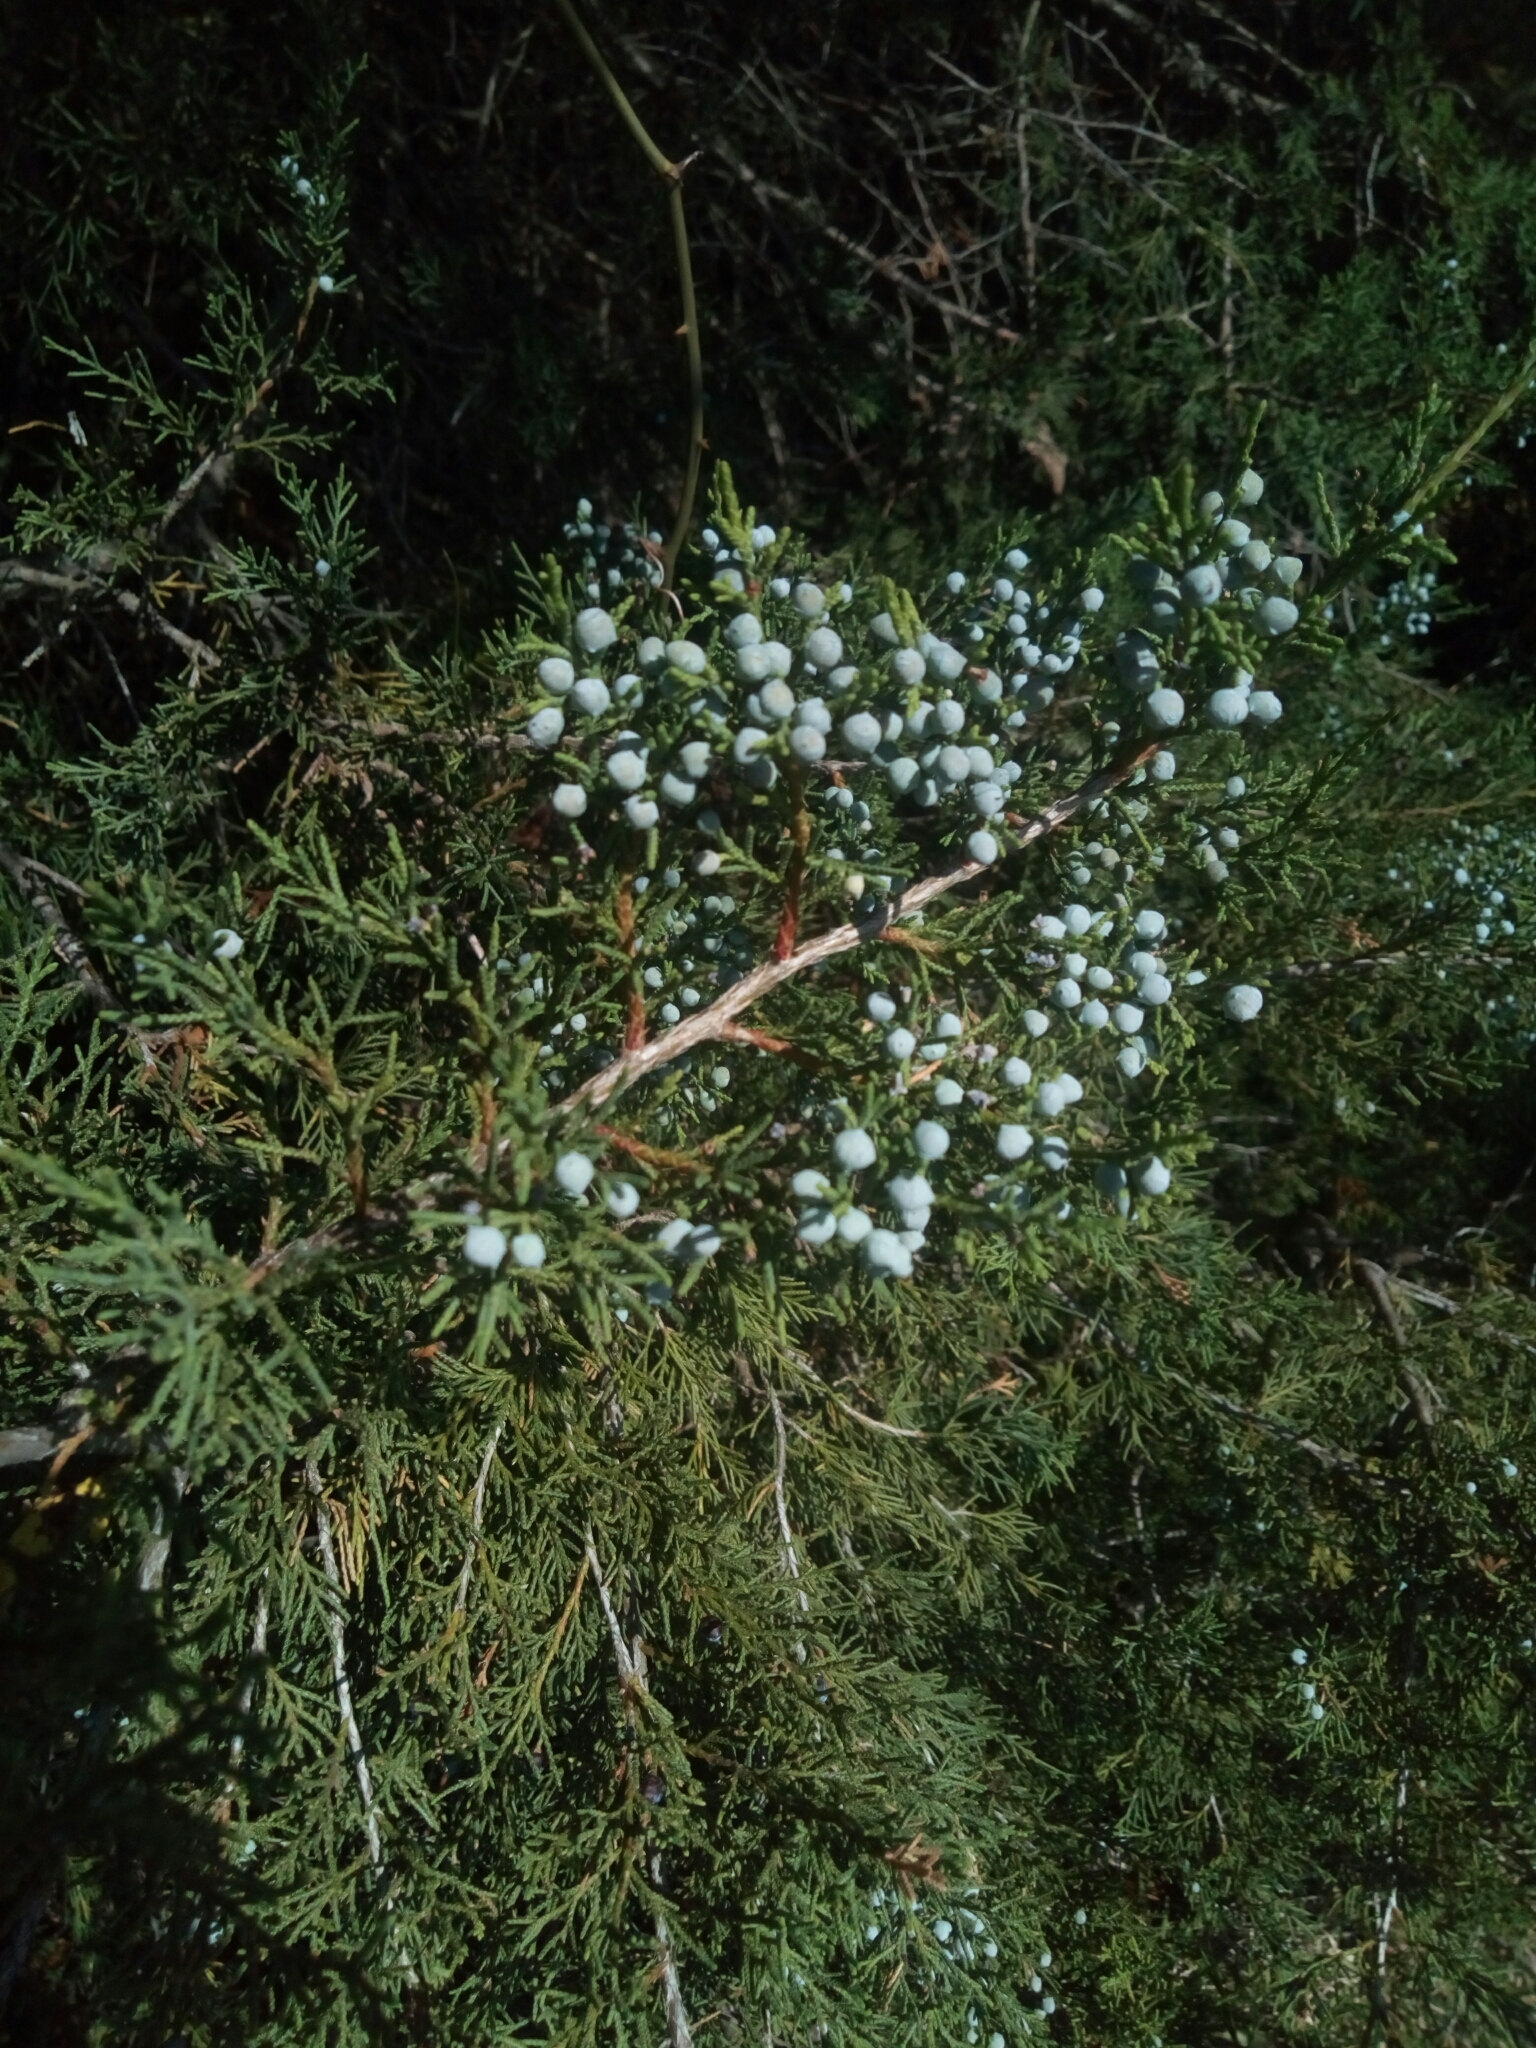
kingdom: Plantae
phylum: Tracheophyta
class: Pinopsida
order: Pinales
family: Cupressaceae
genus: Juniperus
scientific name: Juniperus virginiana
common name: Red juniper
